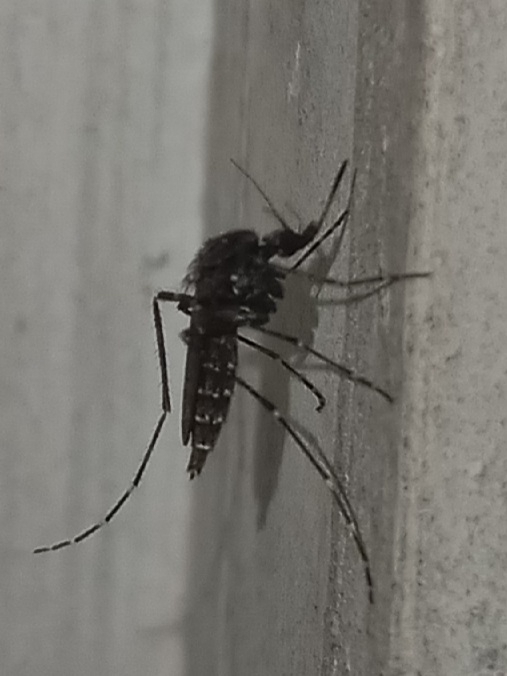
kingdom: Animalia
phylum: Arthropoda
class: Insecta
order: Diptera
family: Culicidae
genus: Psorophora
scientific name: Psorophora columbiae
